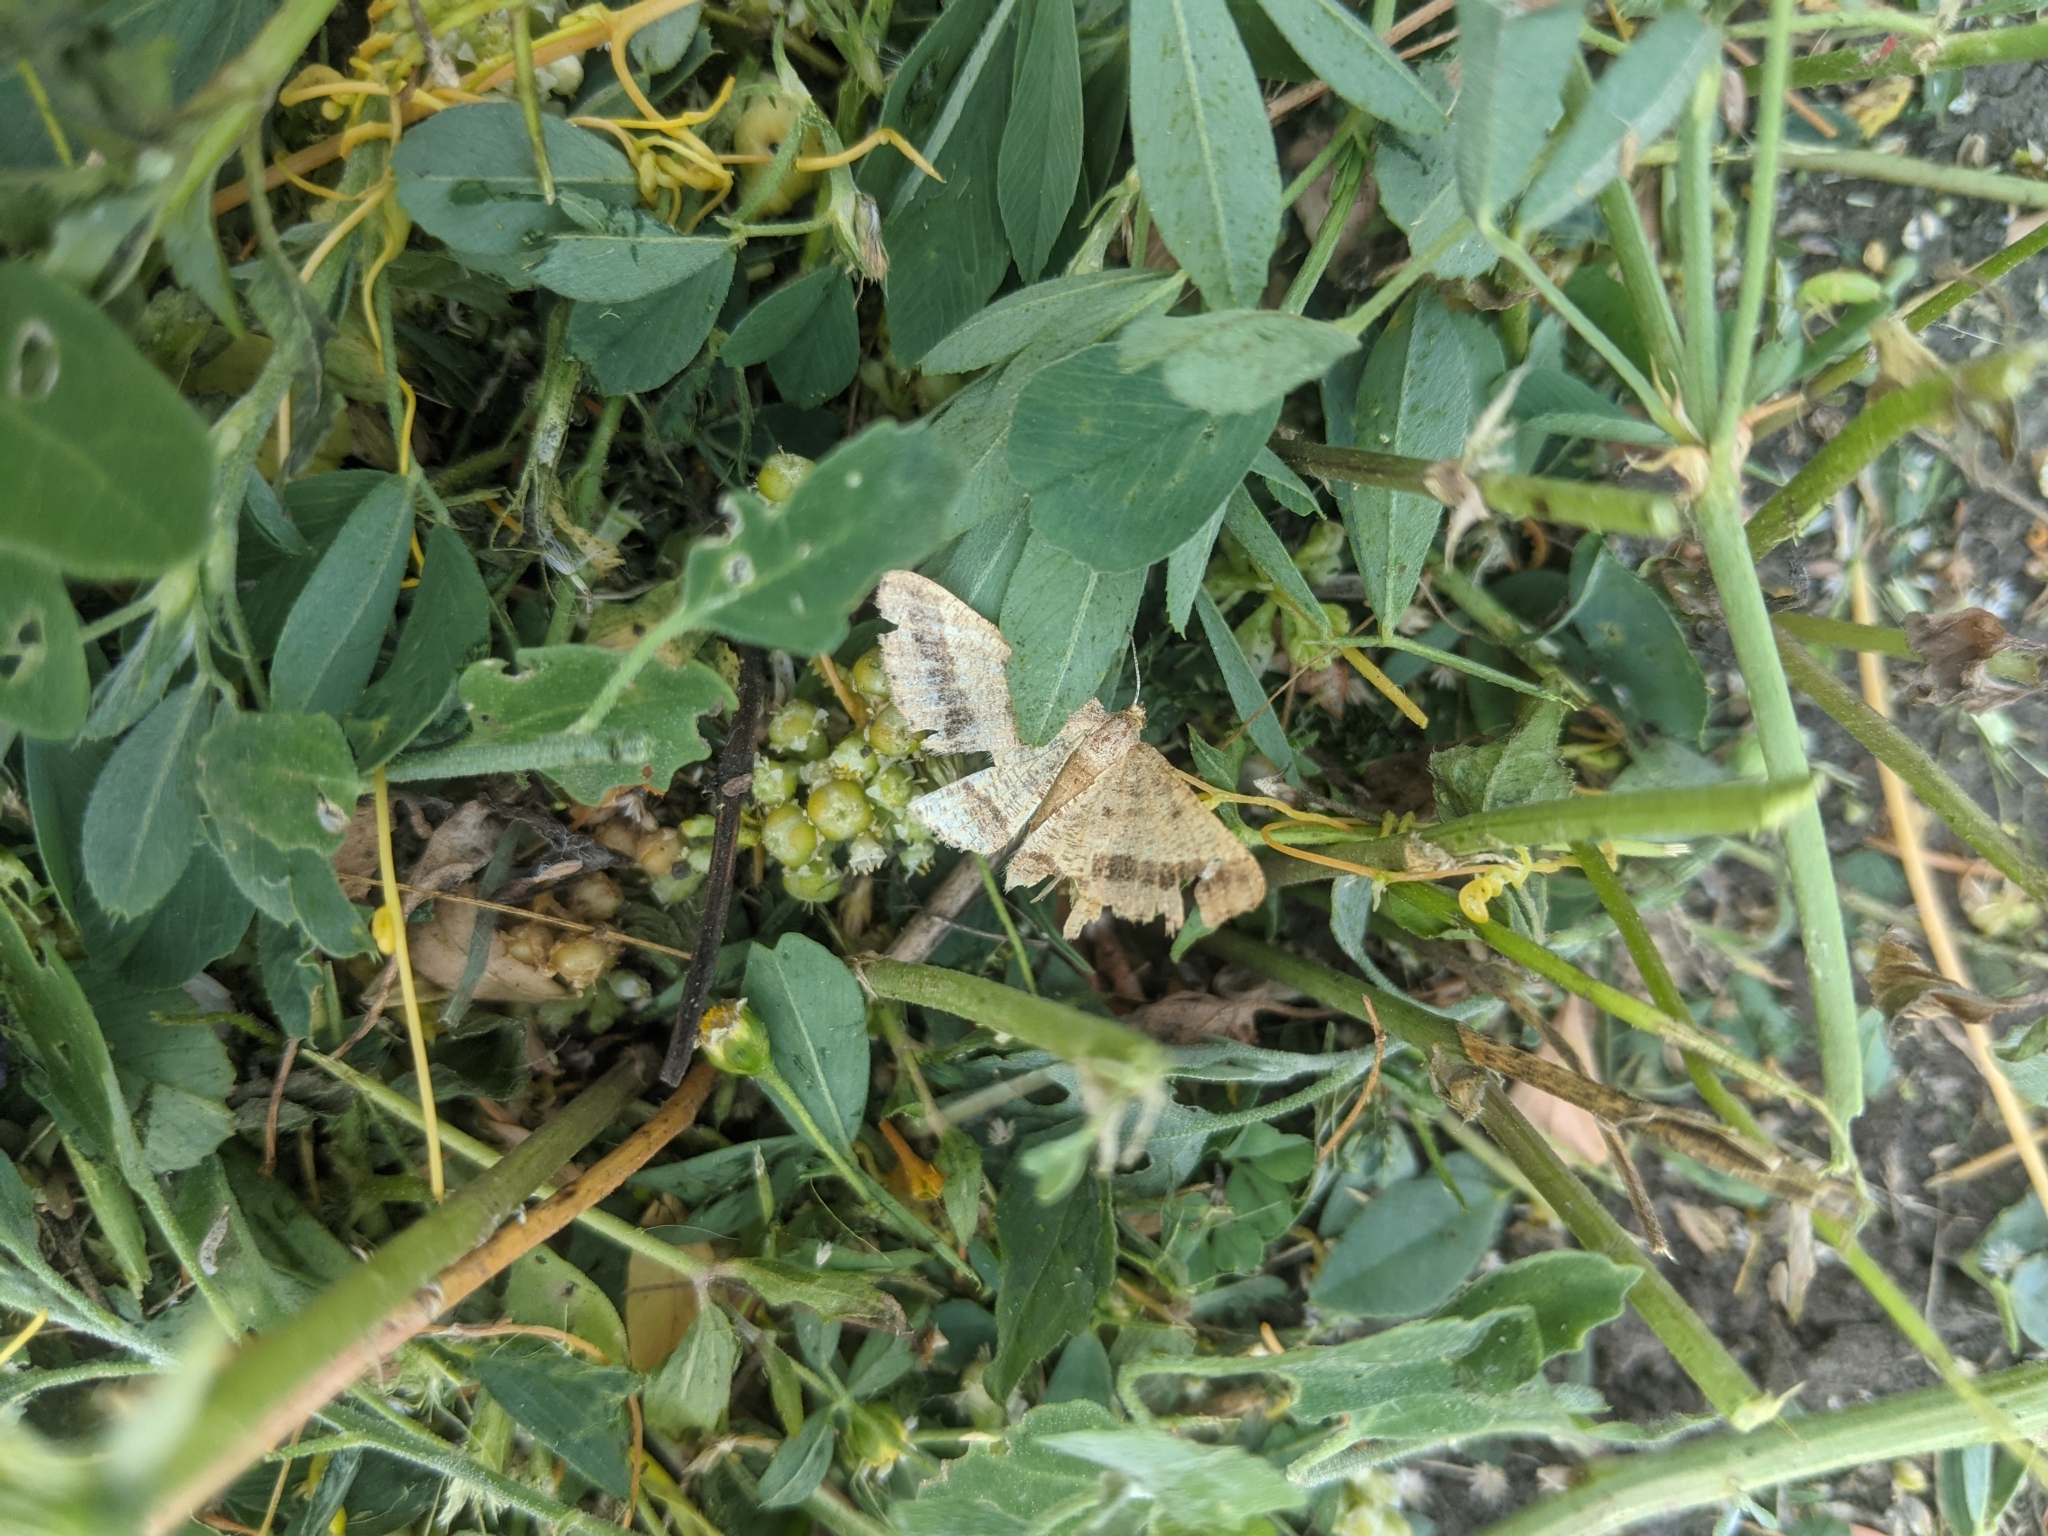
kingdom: Animalia
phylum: Arthropoda
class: Insecta
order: Lepidoptera
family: Geometridae
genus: Tephrina
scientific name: Tephrina arenacearia
